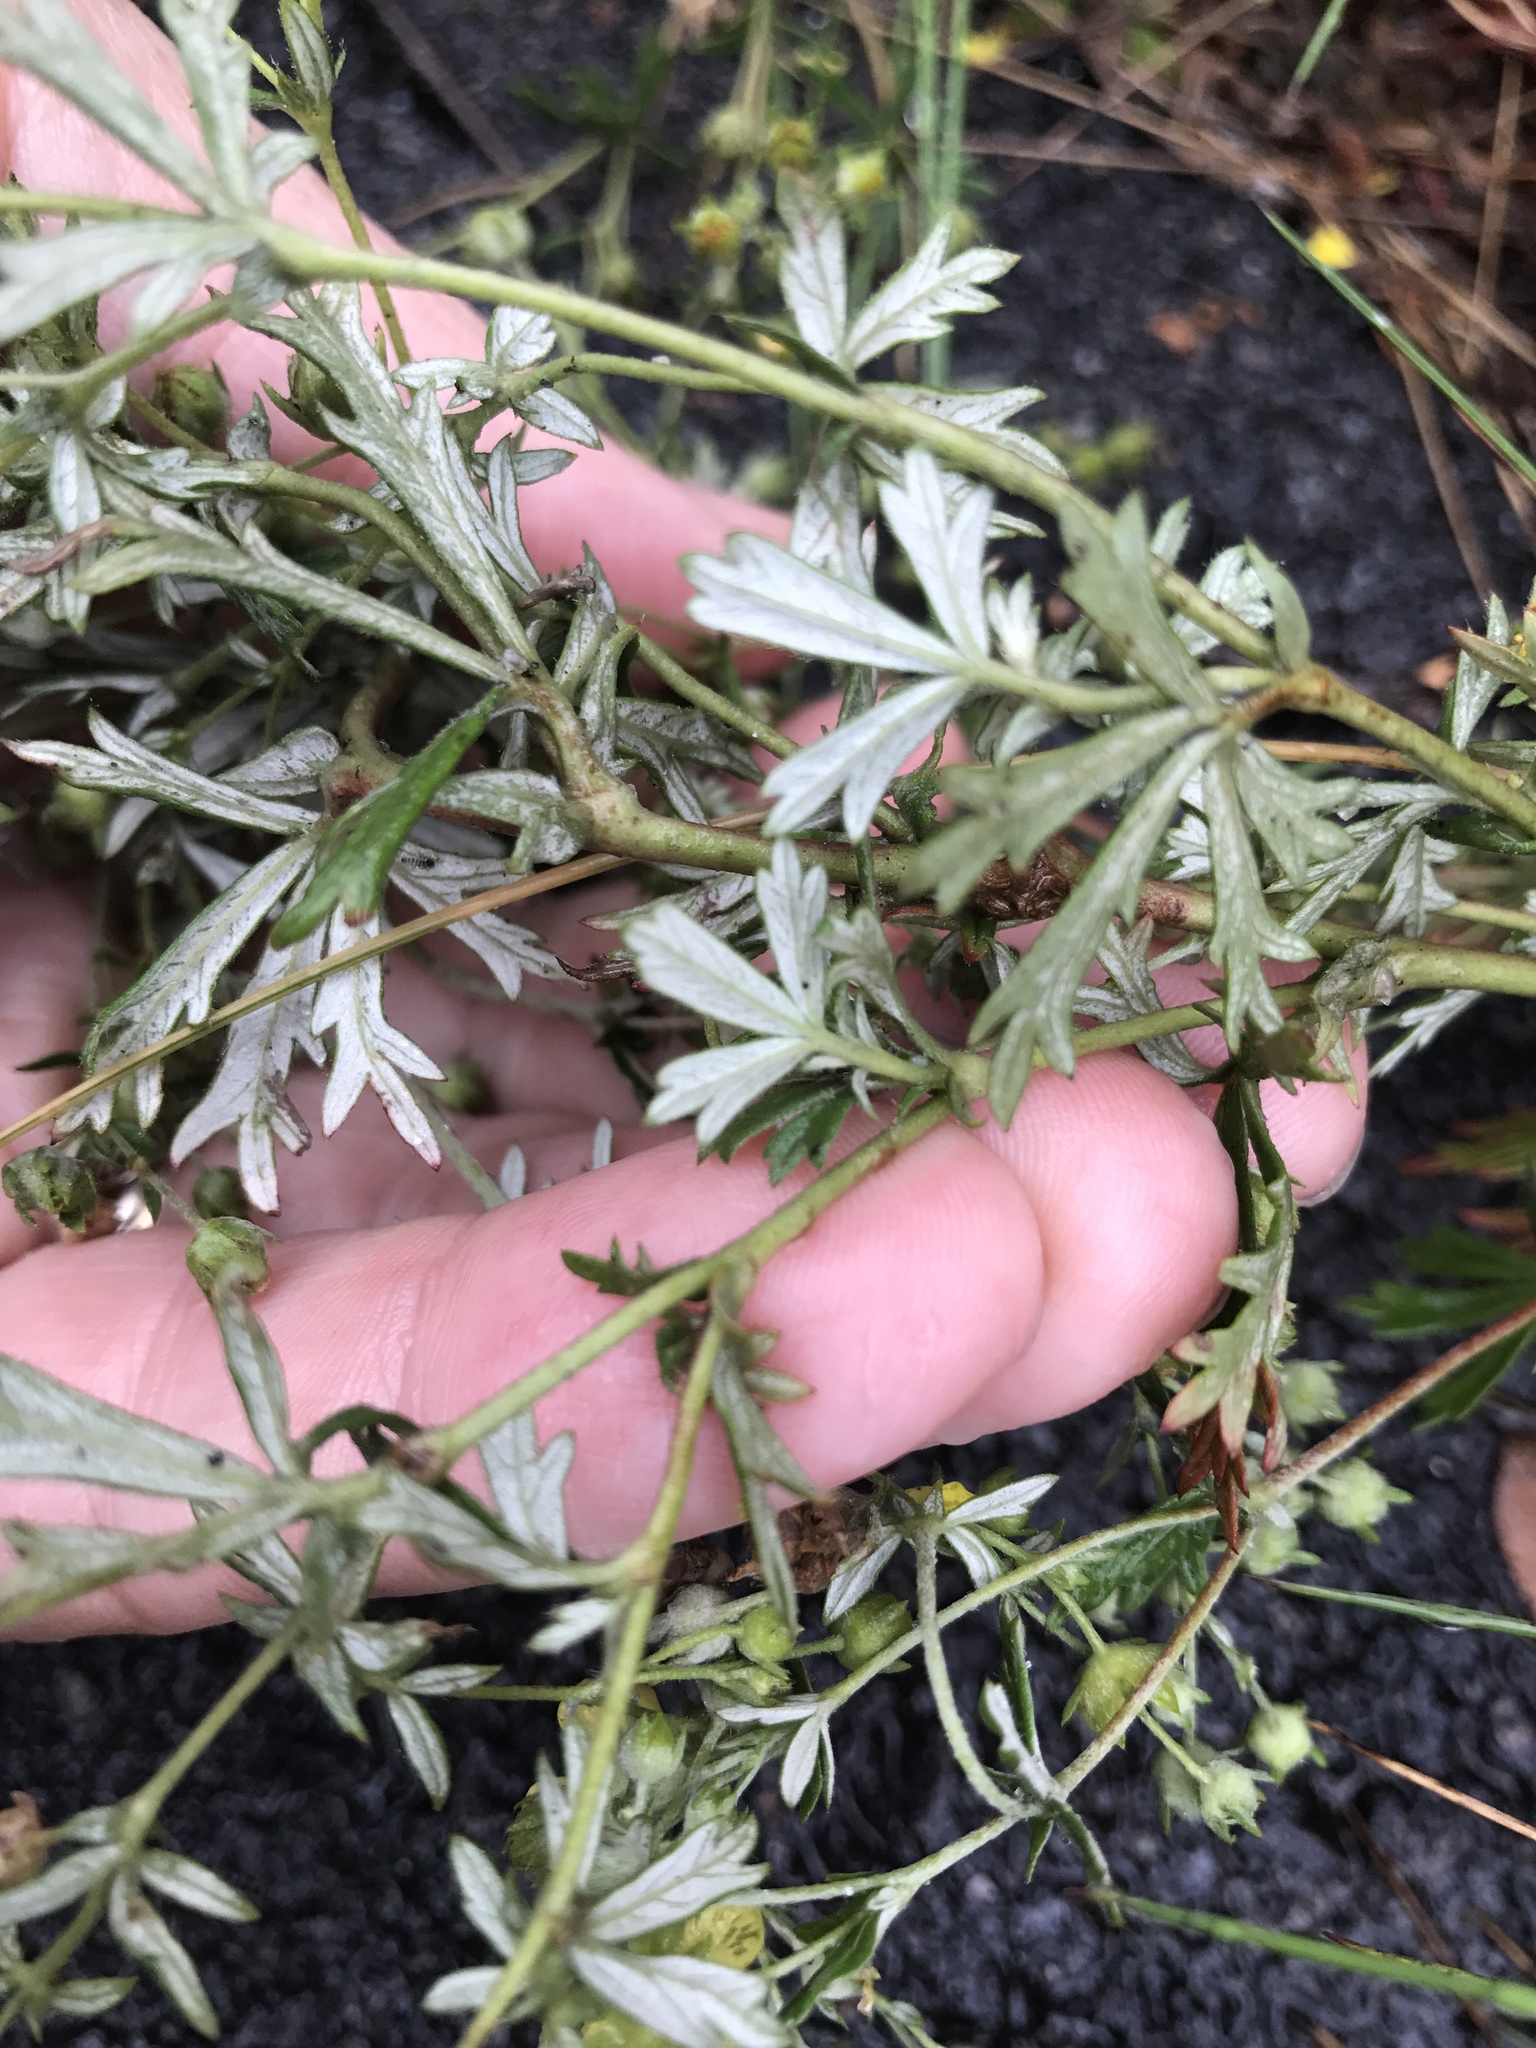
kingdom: Plantae
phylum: Tracheophyta
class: Magnoliopsida
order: Rosales
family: Rosaceae
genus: Potentilla
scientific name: Potentilla argentea
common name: Hoary cinquefoil
